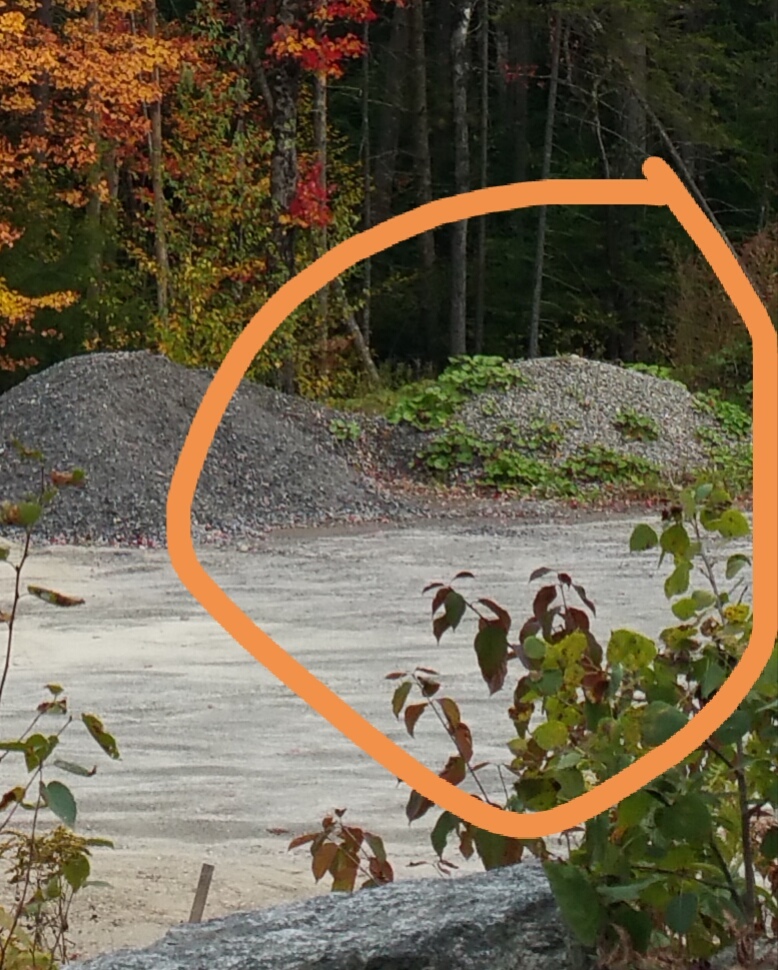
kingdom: Plantae
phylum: Tracheophyta
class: Magnoliopsida
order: Asterales
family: Asteraceae
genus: Tussilago
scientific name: Tussilago farfara
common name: Coltsfoot
